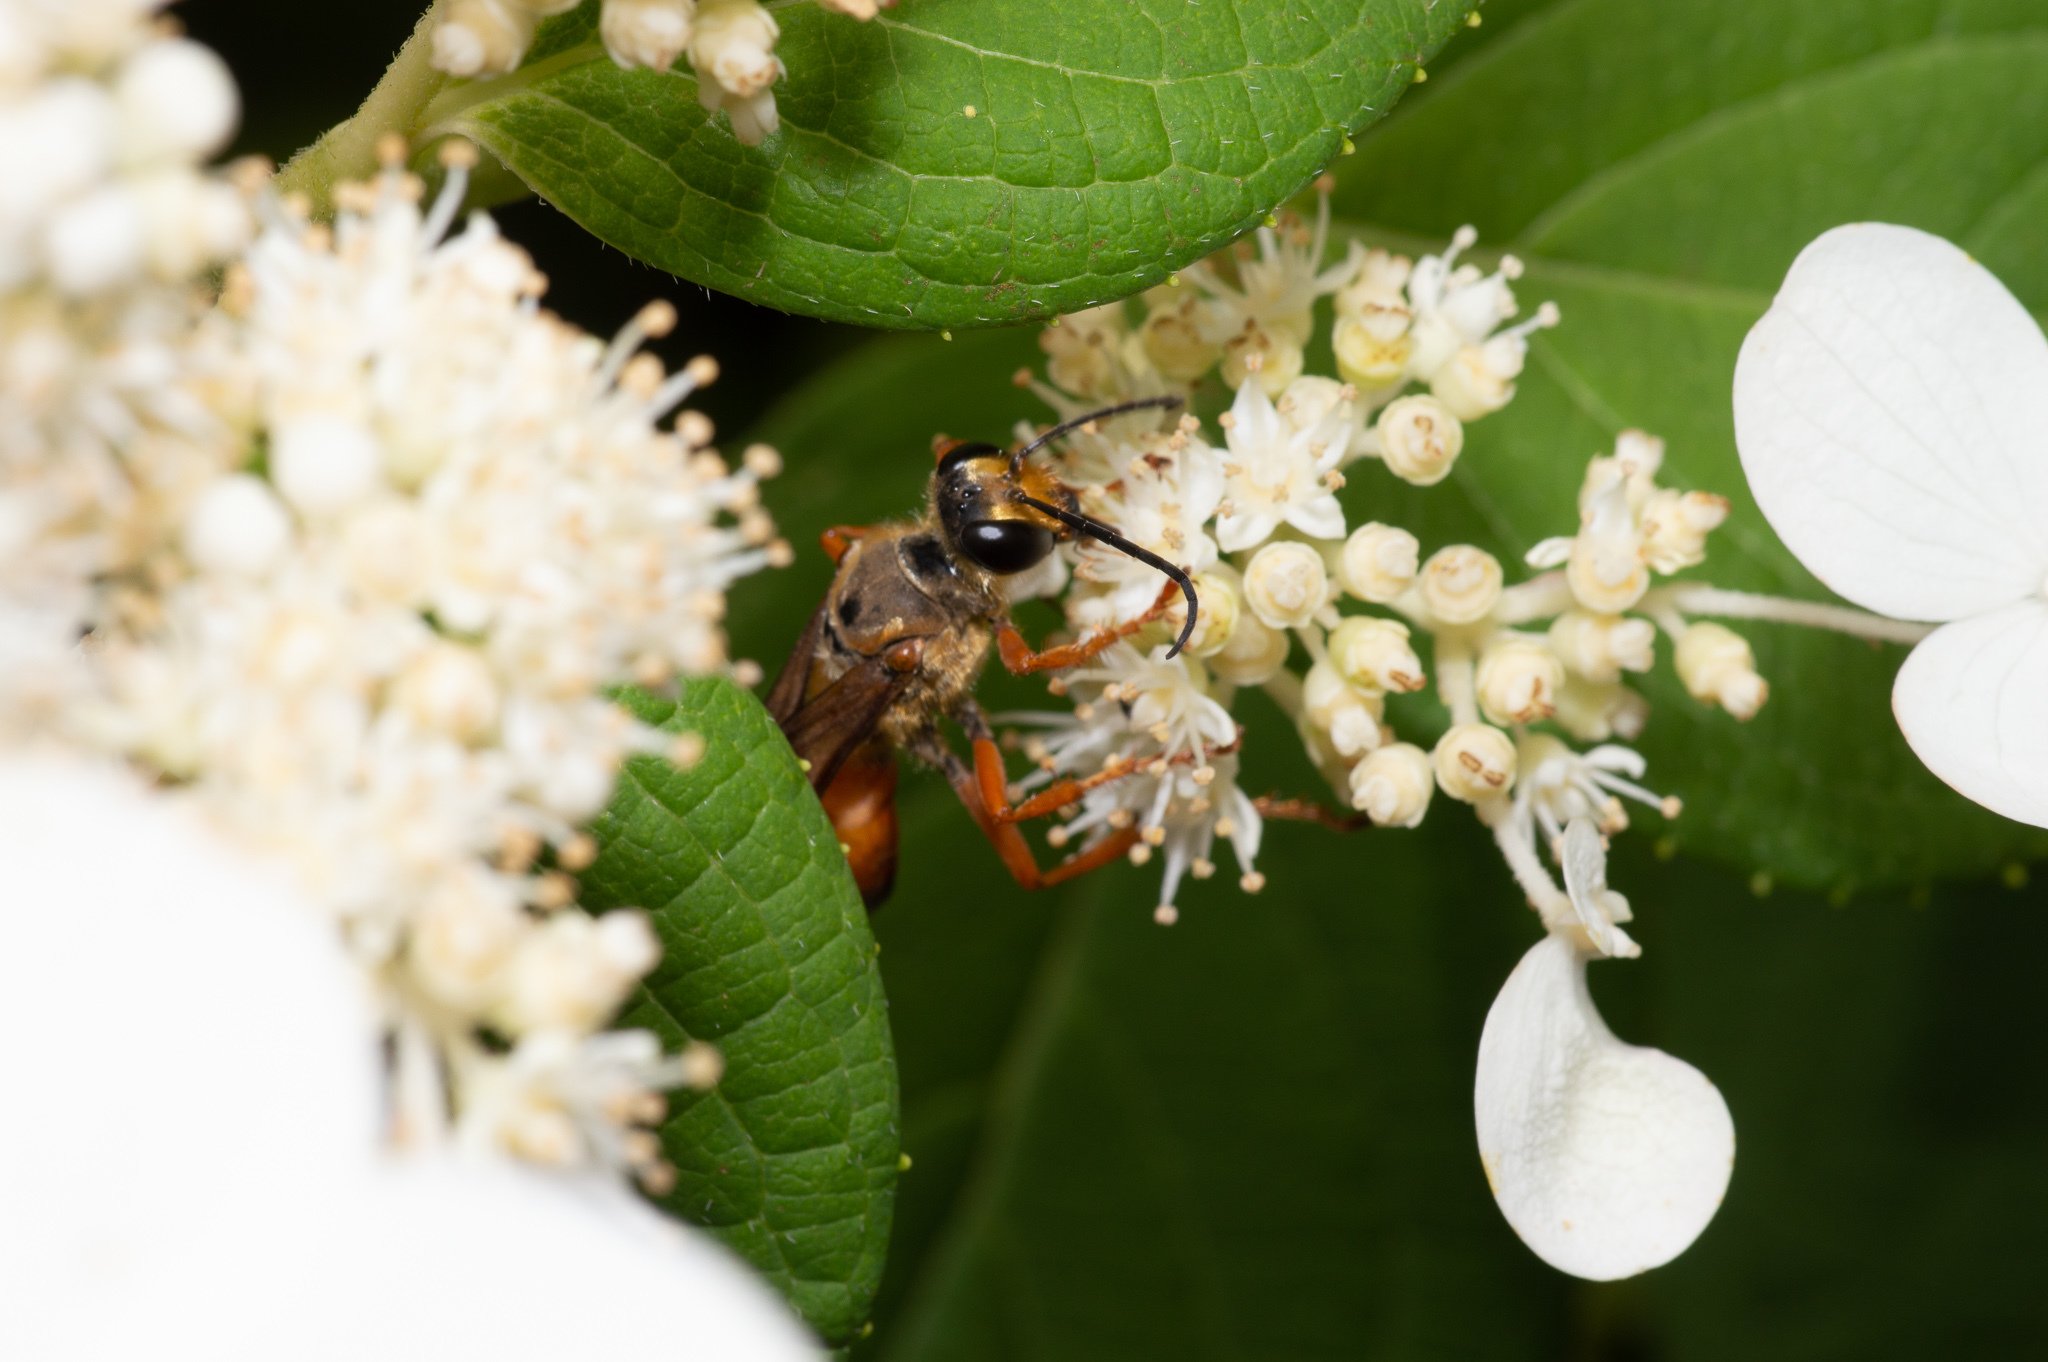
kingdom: Animalia
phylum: Arthropoda
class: Insecta
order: Hymenoptera
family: Sphecidae
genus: Sphex
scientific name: Sphex ichneumoneus
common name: Great golden digger wasp
